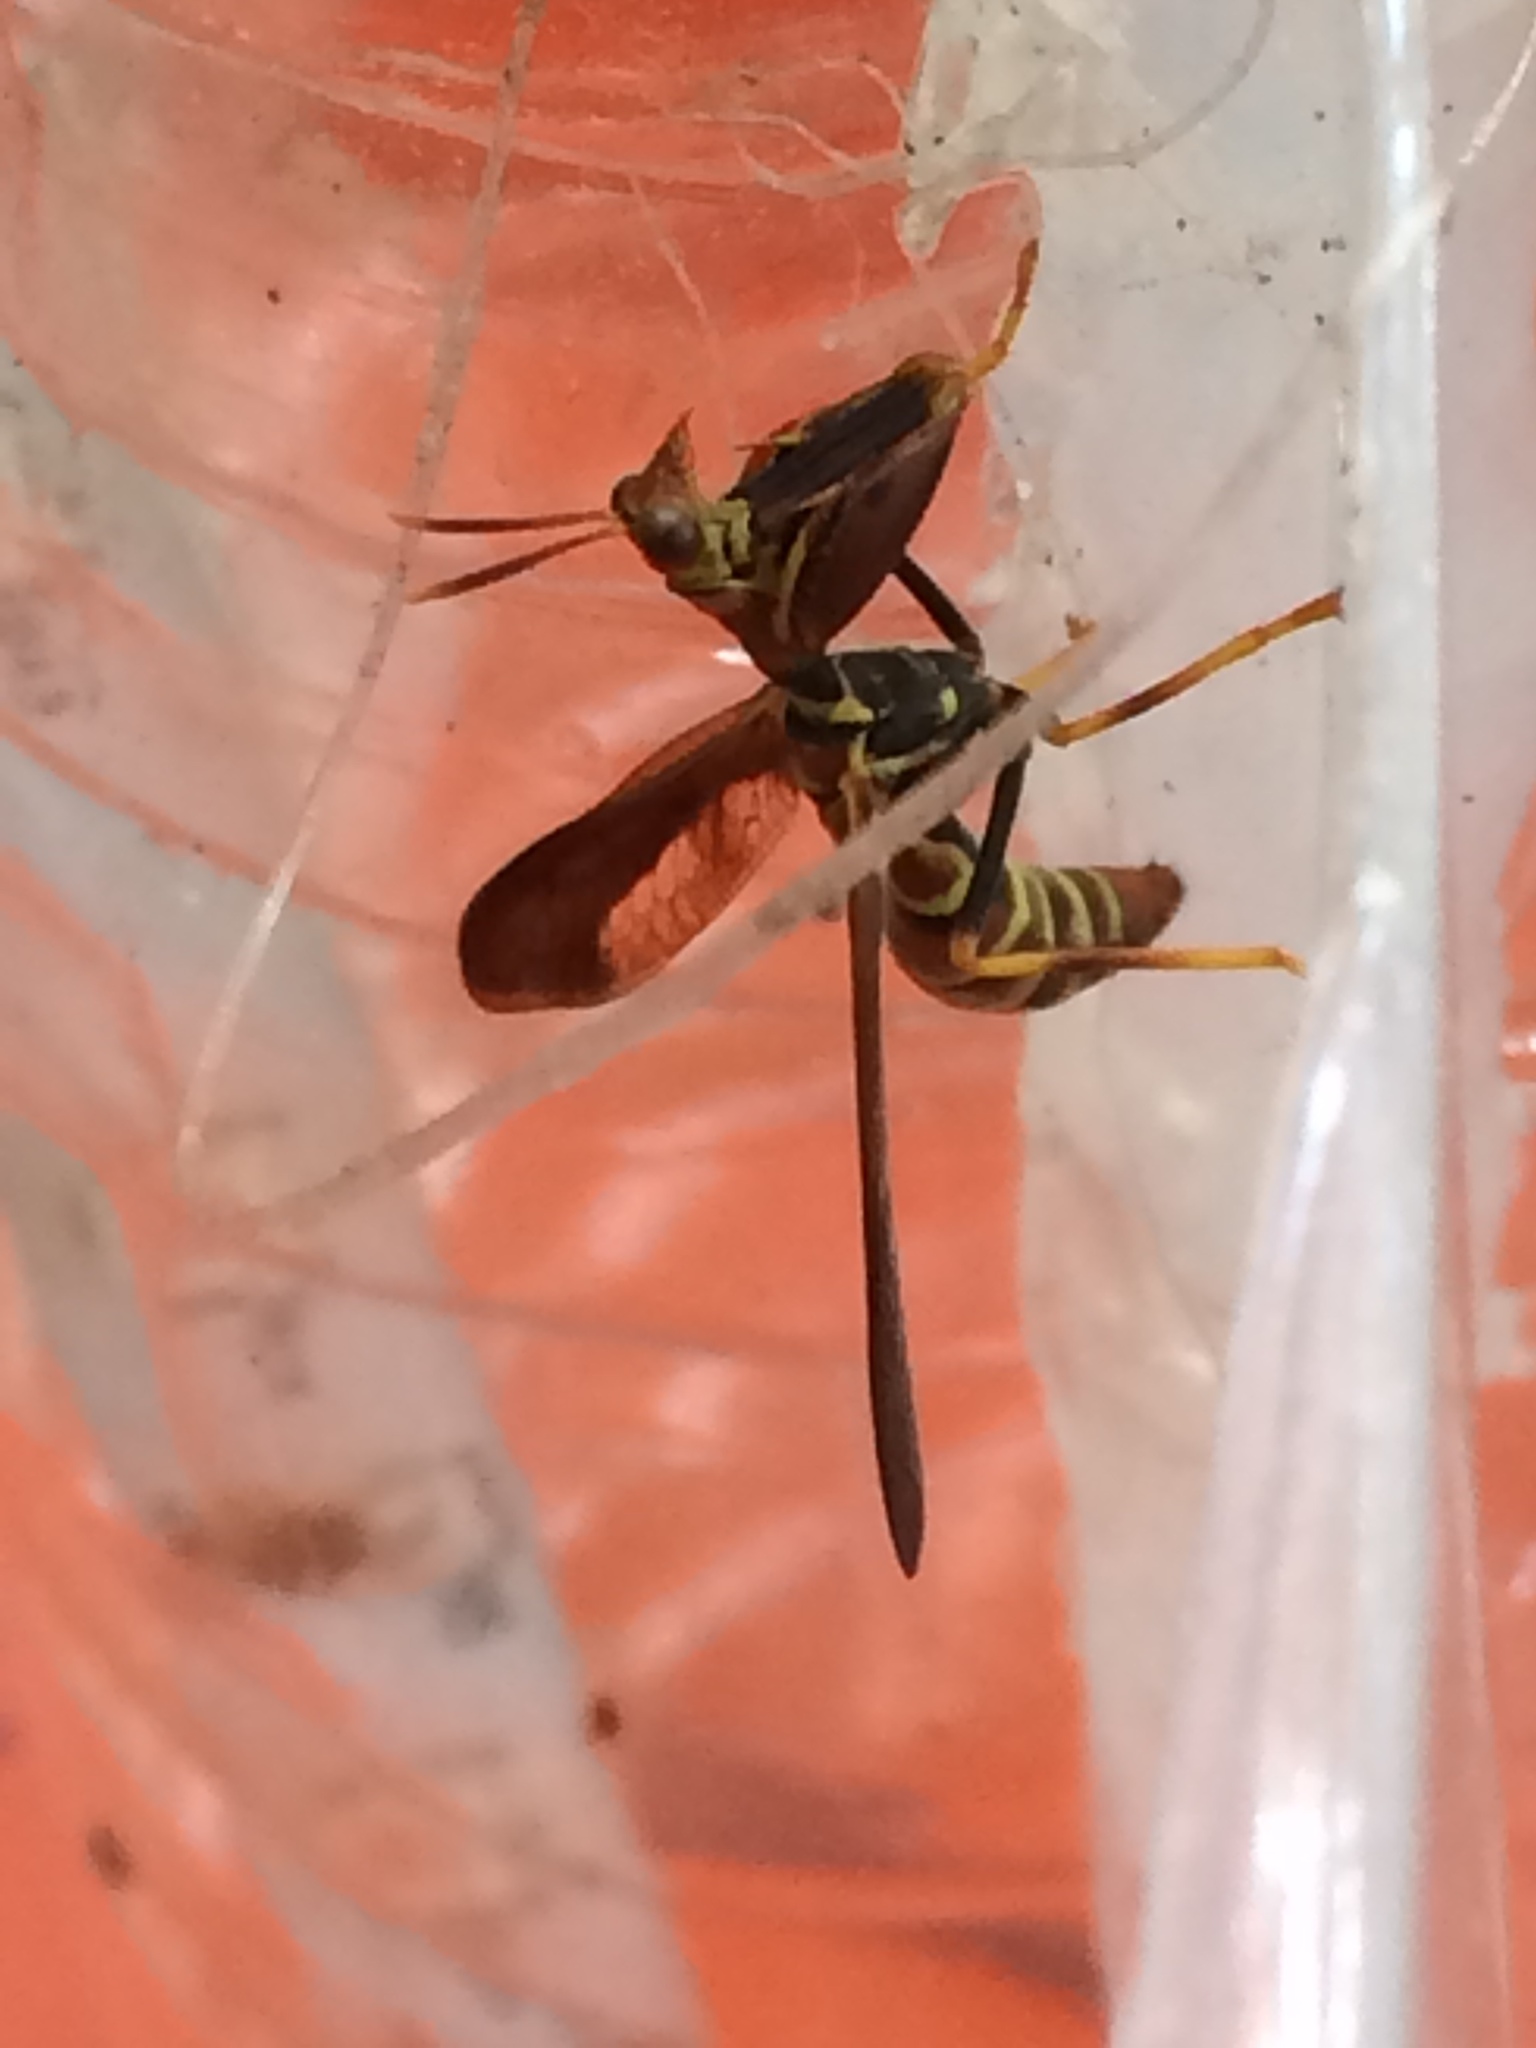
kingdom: Animalia
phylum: Arthropoda
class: Insecta
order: Neuroptera
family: Mantispidae
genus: Climaciella
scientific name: Climaciella brunnea
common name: Brown wasp mantidfly
